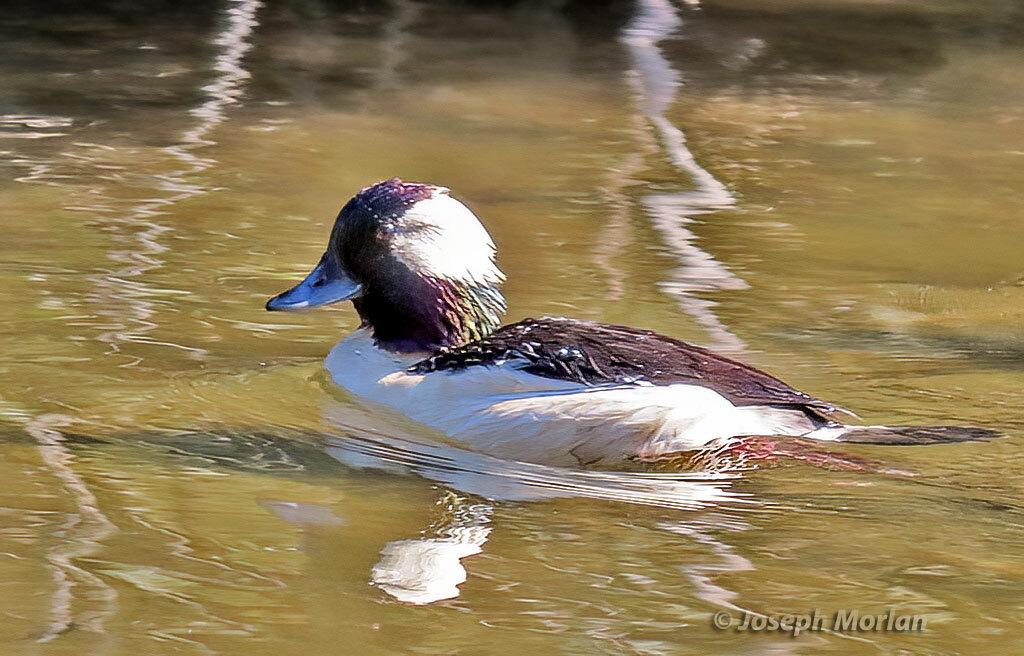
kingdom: Animalia
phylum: Chordata
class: Aves
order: Anseriformes
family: Anatidae
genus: Bucephala
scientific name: Bucephala albeola
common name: Bufflehead
